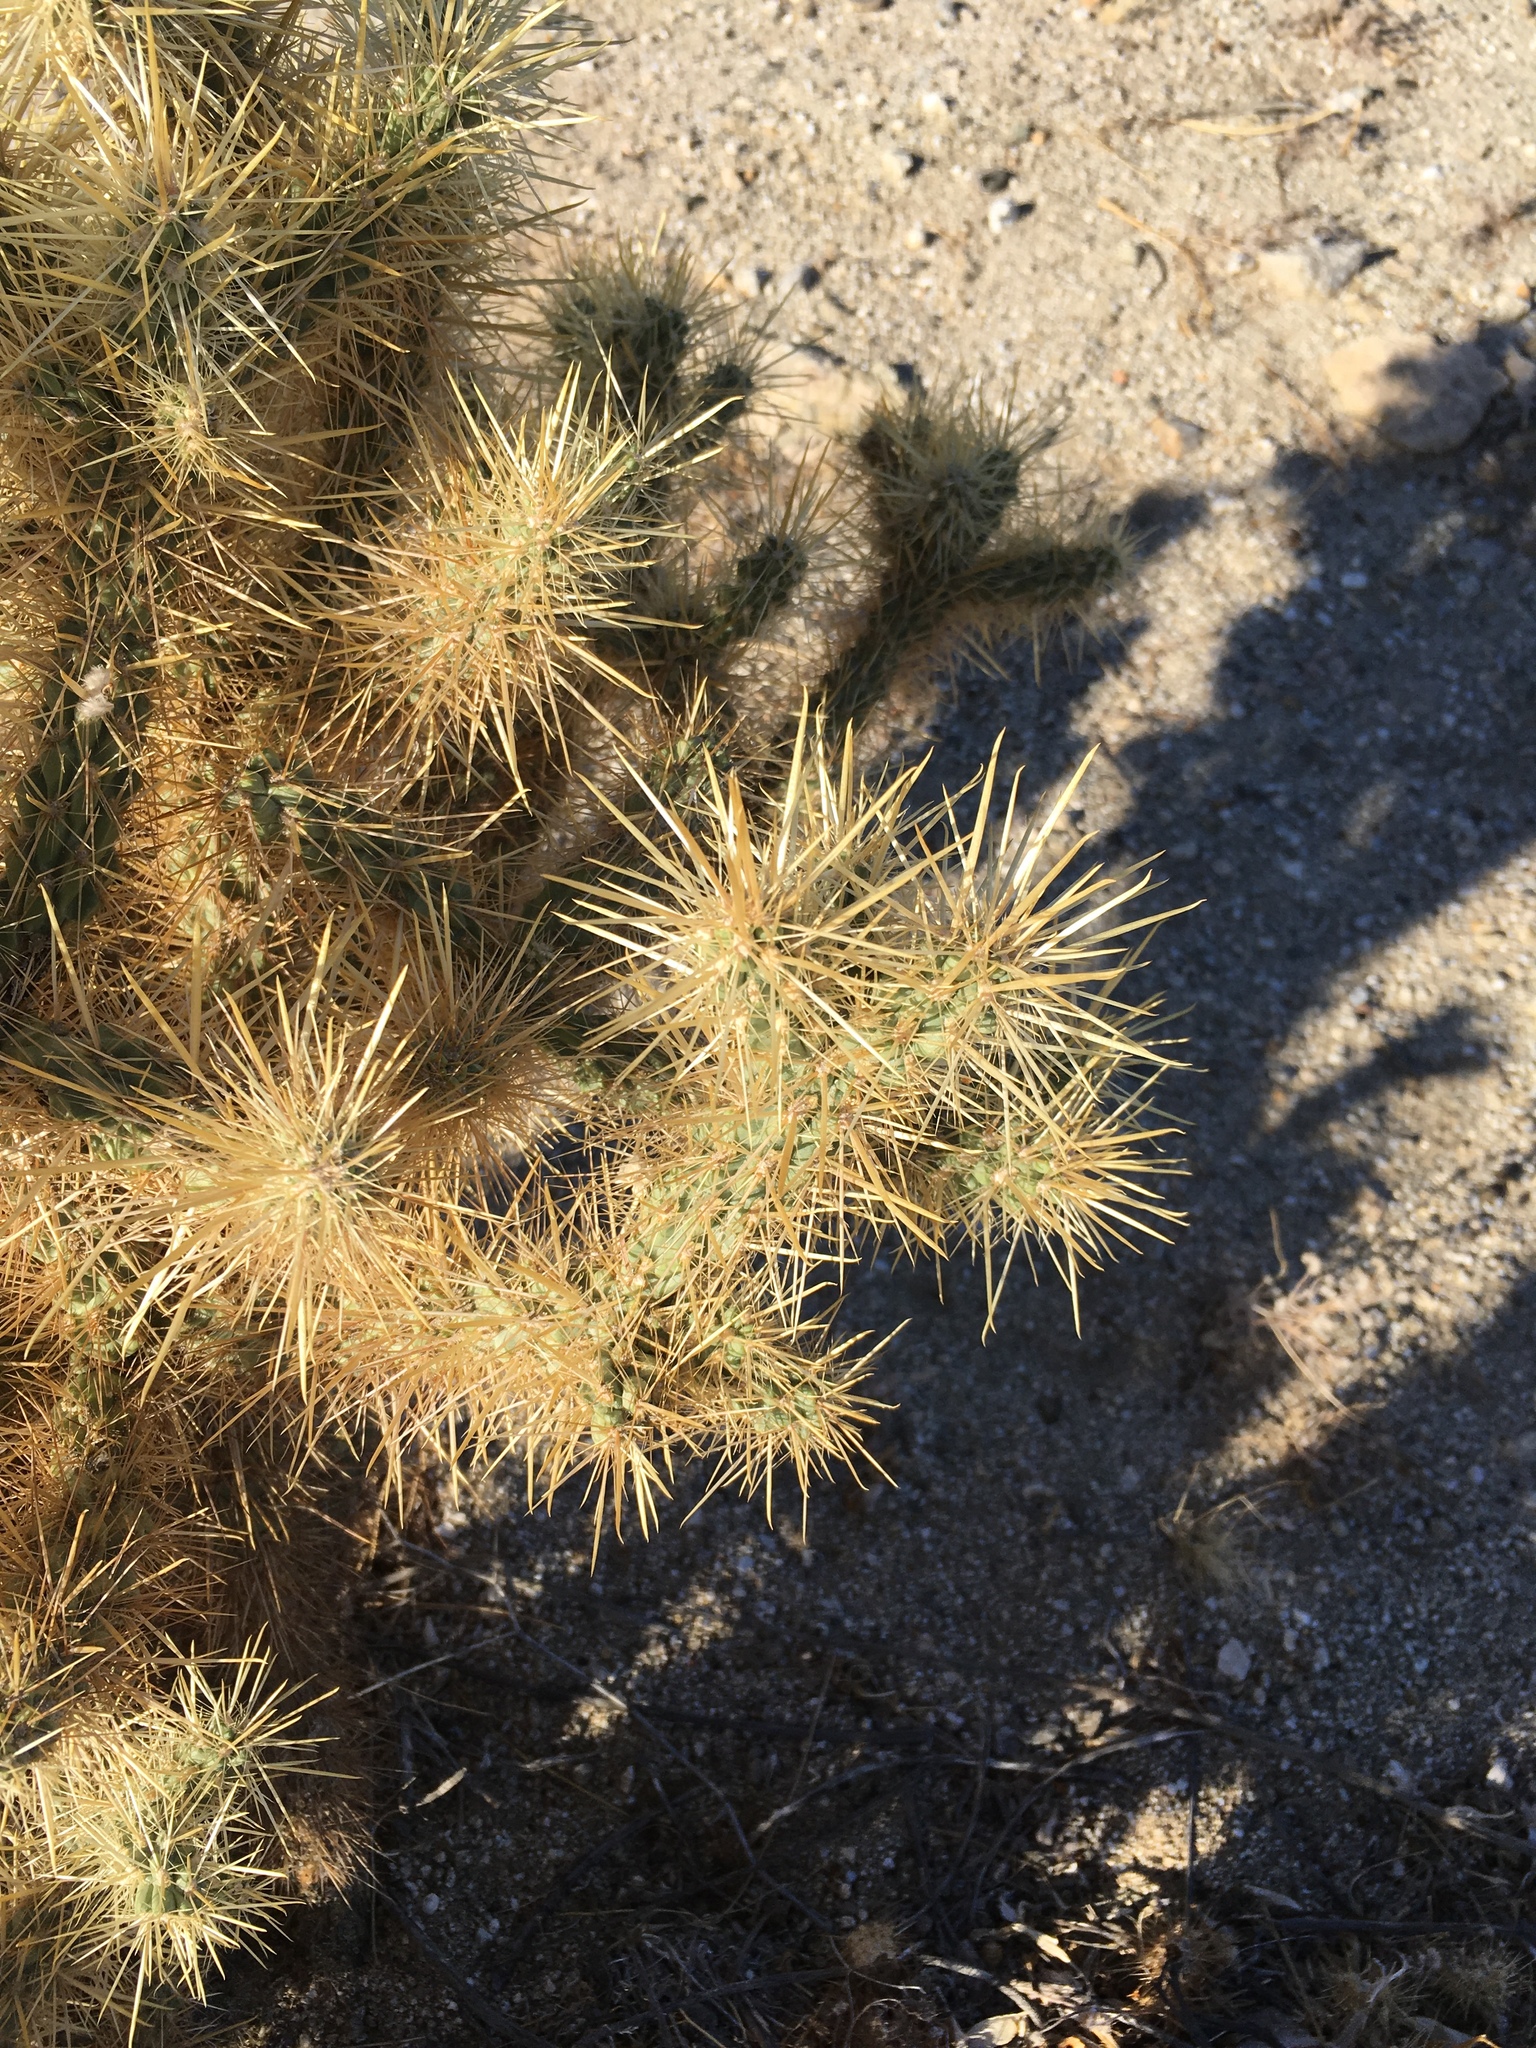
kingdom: Plantae
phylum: Tracheophyta
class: Magnoliopsida
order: Caryophyllales
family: Cactaceae
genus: Cylindropuntia
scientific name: Cylindropuntia echinocarpa
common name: Ground cholla
